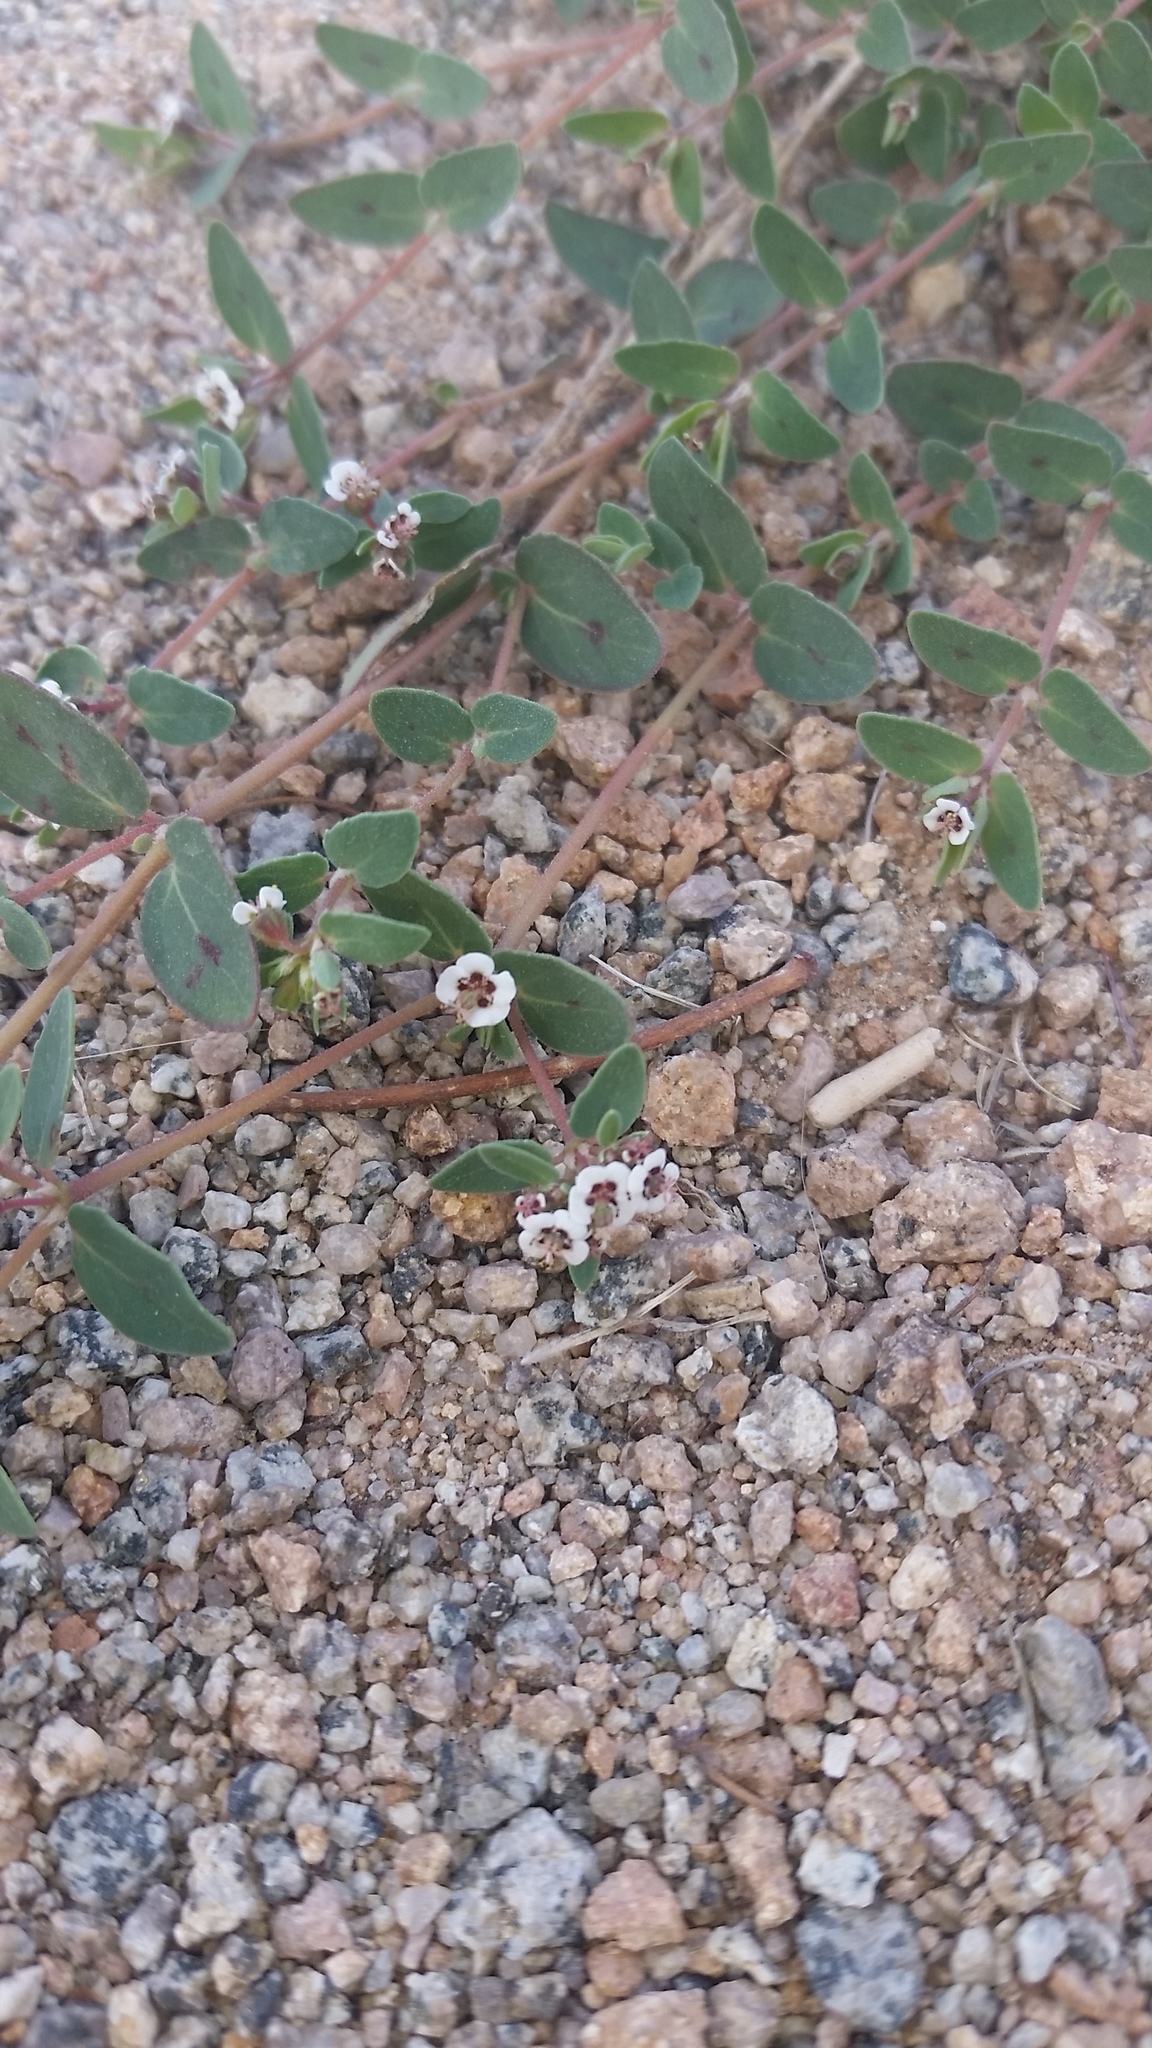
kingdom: Plantae
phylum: Tracheophyta
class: Magnoliopsida
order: Malpighiales
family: Euphorbiaceae
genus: Euphorbia
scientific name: Euphorbia capitellata
